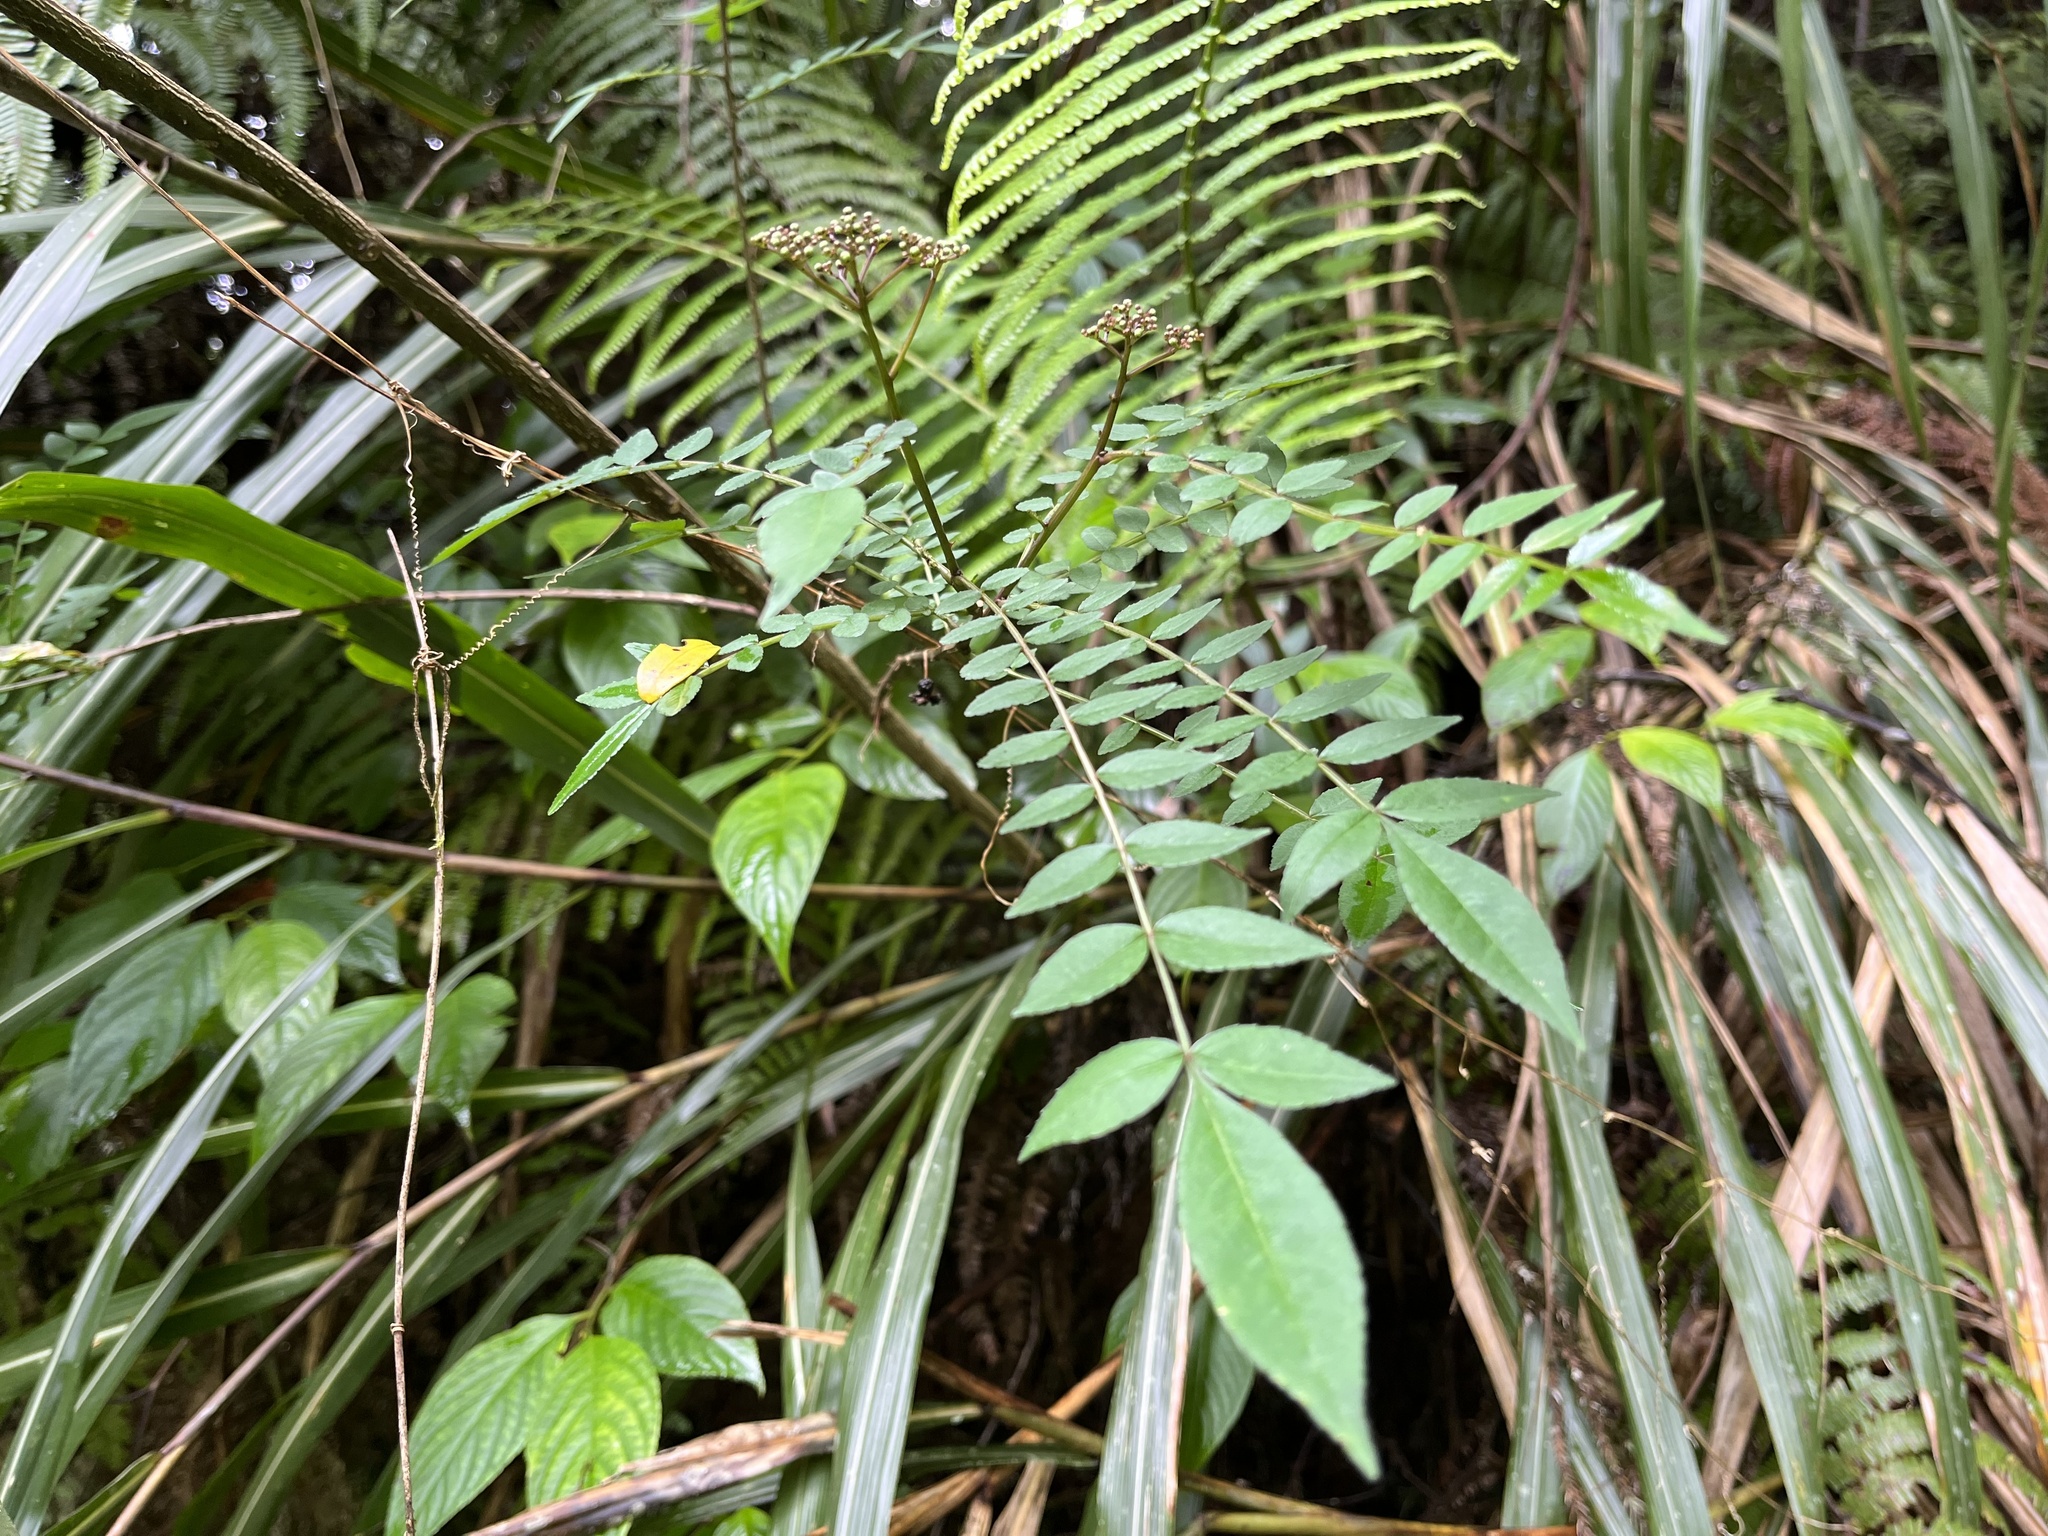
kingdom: Plantae
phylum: Tracheophyta
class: Magnoliopsida
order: Sapindales
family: Rutaceae
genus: Zanthoxylum
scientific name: Zanthoxylum scandens
